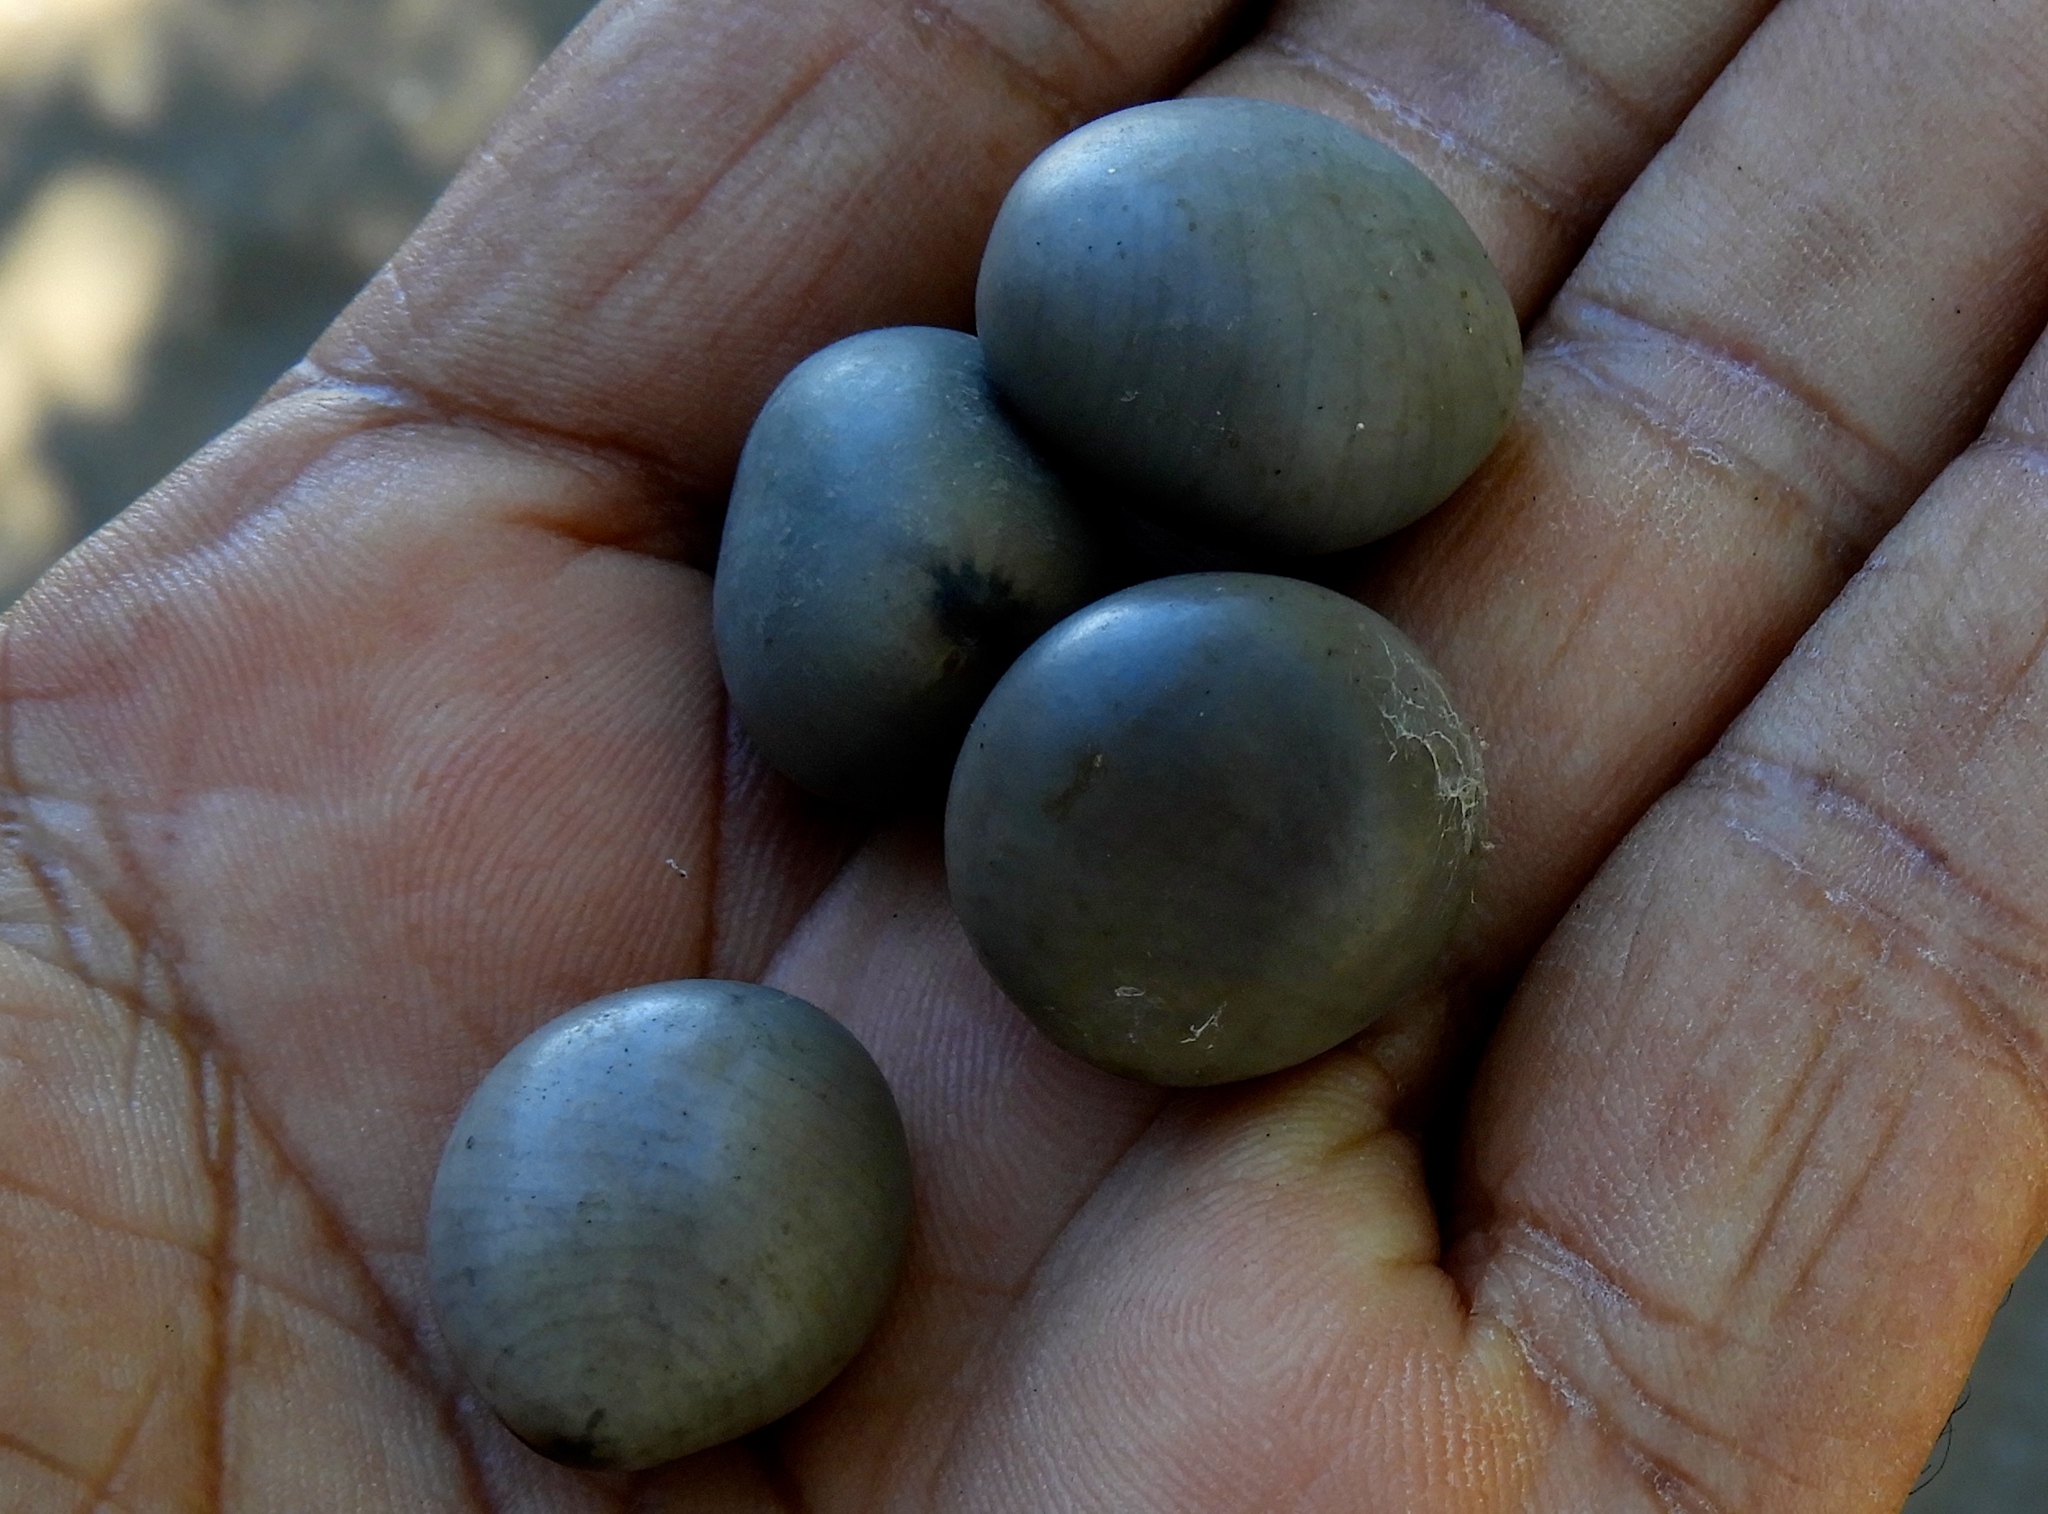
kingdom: Plantae
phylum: Tracheophyta
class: Magnoliopsida
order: Fabales
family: Fabaceae
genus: Guilandina
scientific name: Guilandina bonduc
